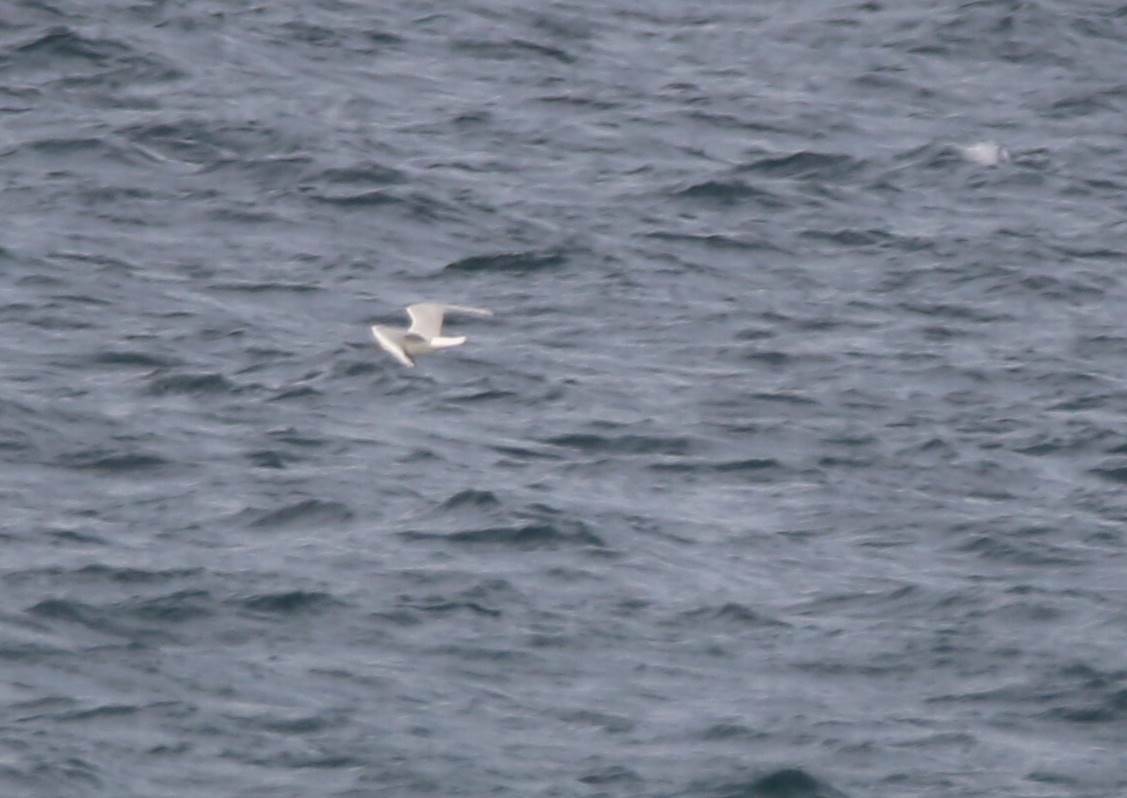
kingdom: Animalia
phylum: Chordata
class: Aves
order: Charadriiformes
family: Laridae
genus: Chroicocephalus
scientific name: Chroicocephalus ridibundus
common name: Black-headed gull
